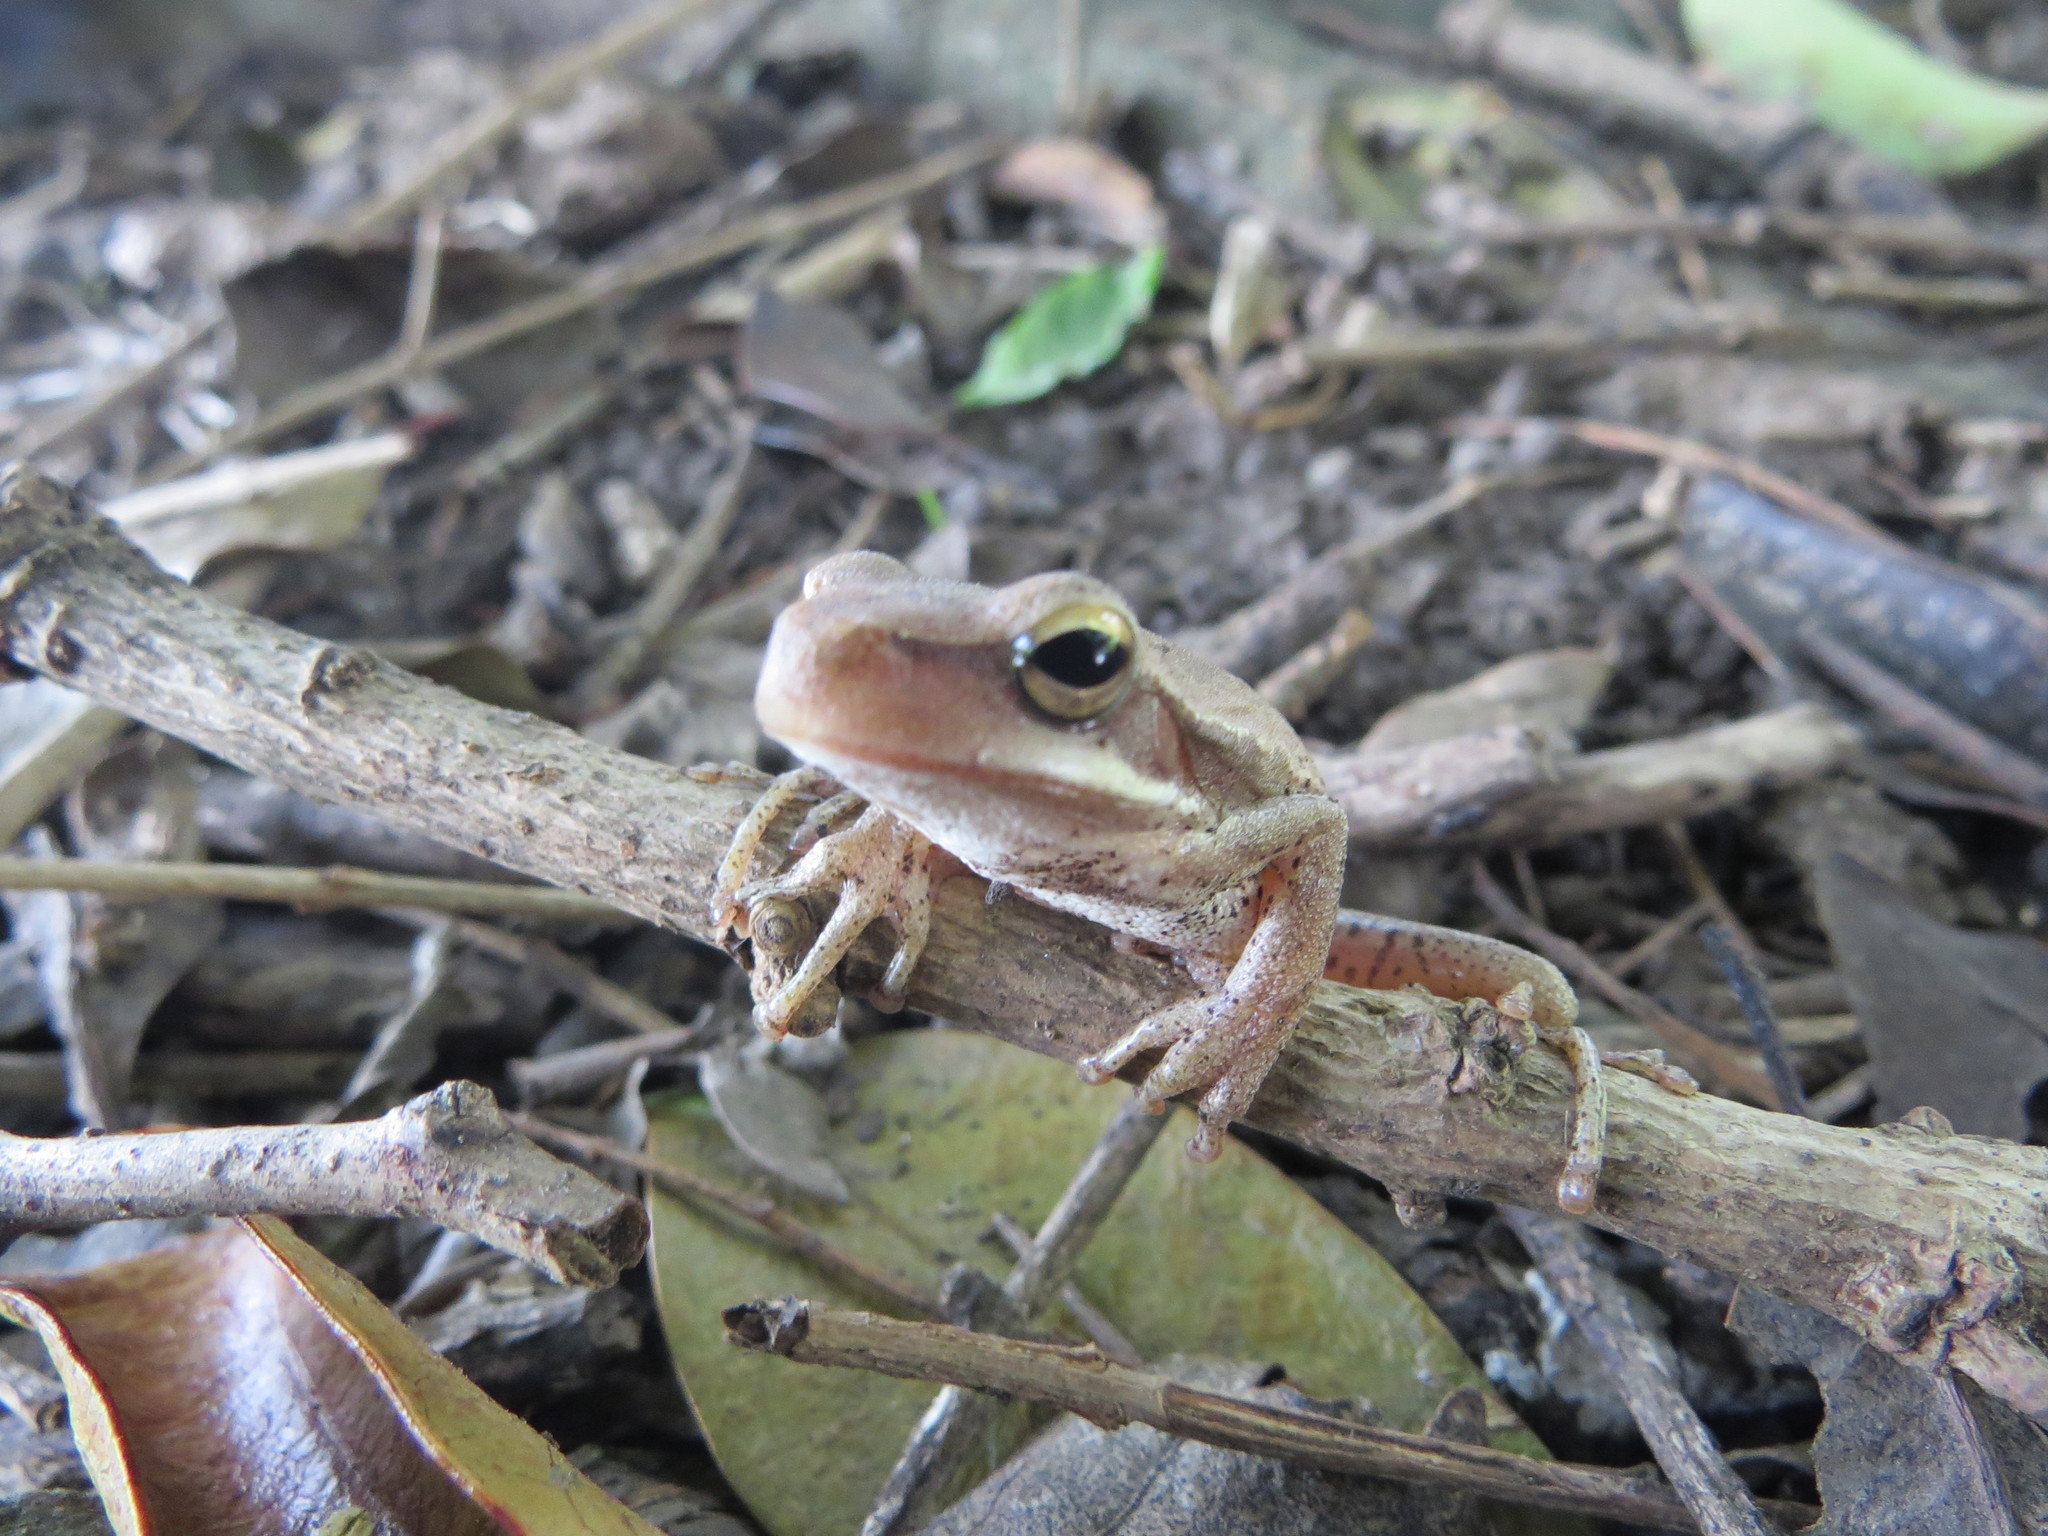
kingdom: Animalia
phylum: Chordata
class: Amphibia
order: Anura
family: Hylidae
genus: Boana
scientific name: Boana pulchella
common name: Montevideo treefrog
